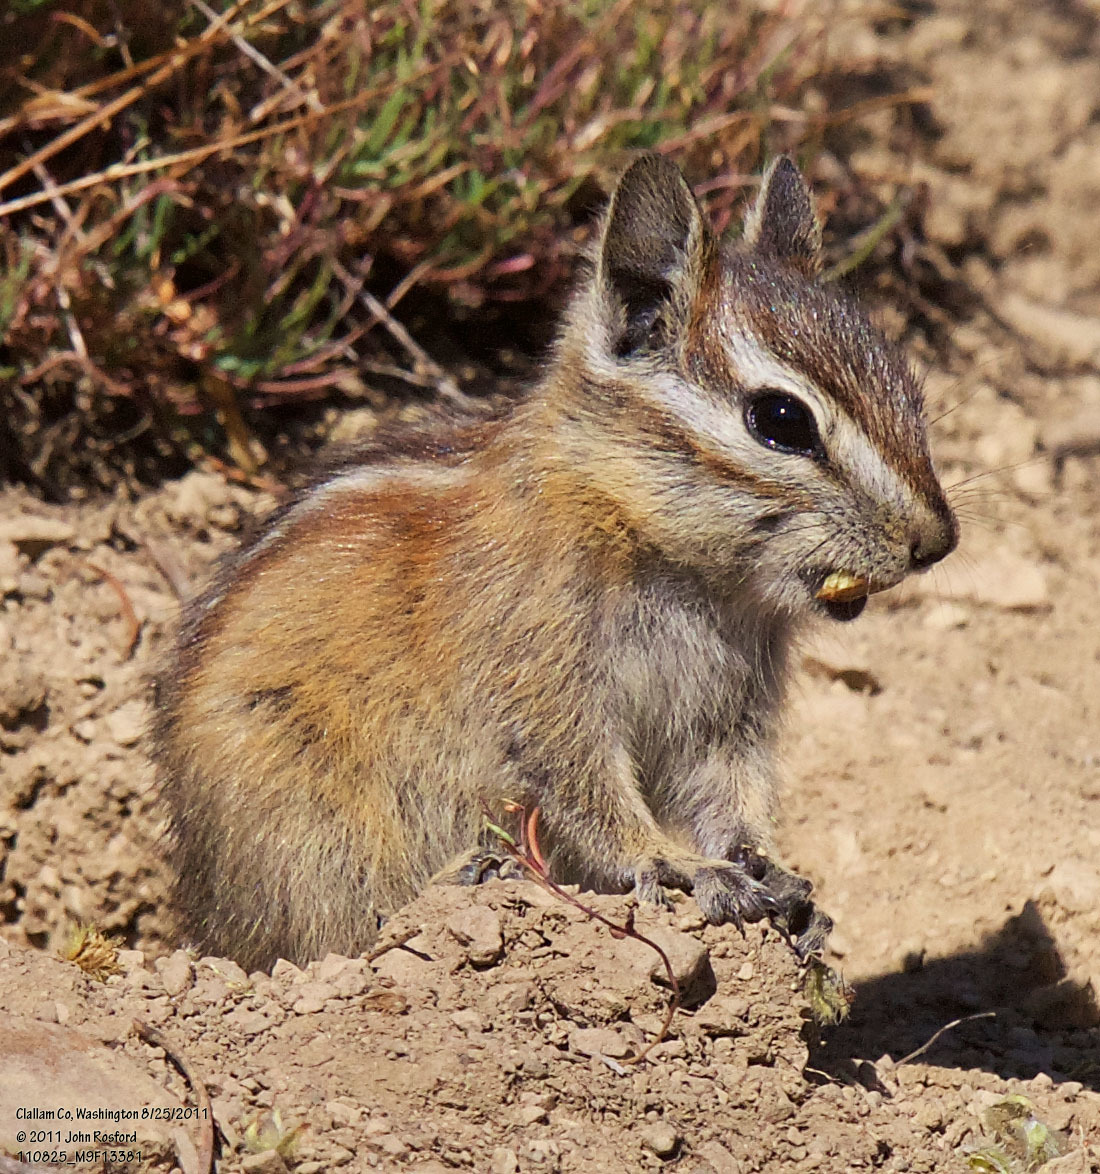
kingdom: Animalia
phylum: Chordata
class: Mammalia
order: Rodentia
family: Sciuridae
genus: Tamias
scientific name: Tamias amoenus
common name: Yellow-pine chipmunk
